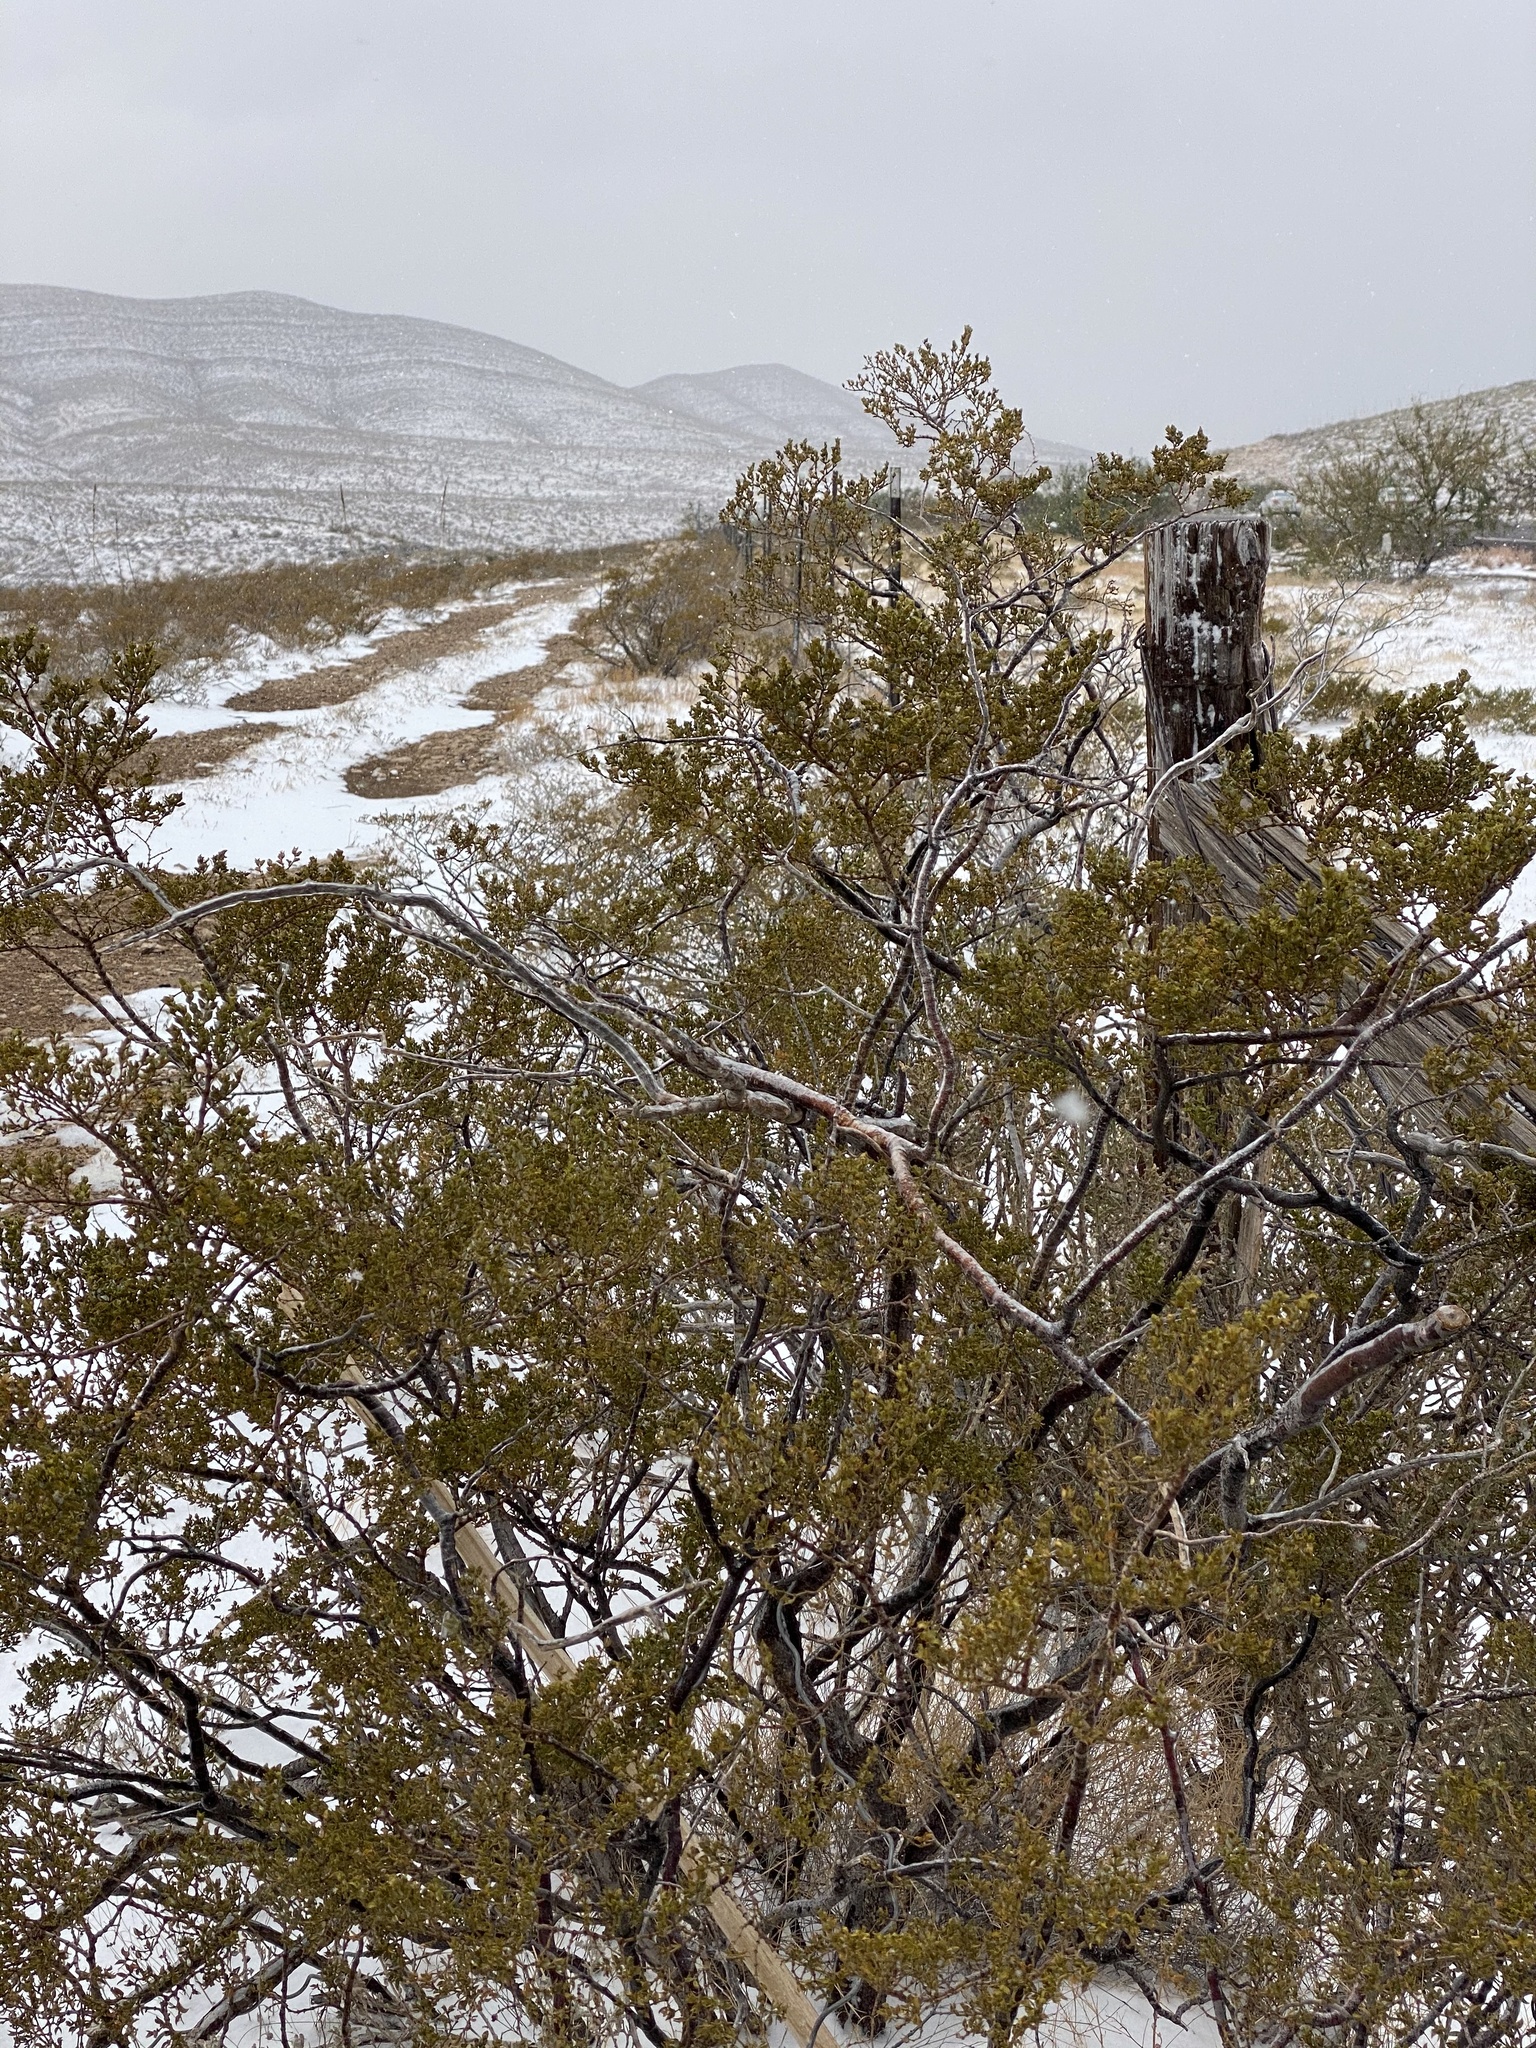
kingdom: Plantae
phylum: Tracheophyta
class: Magnoliopsida
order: Zygophyllales
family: Zygophyllaceae
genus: Larrea
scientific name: Larrea tridentata
